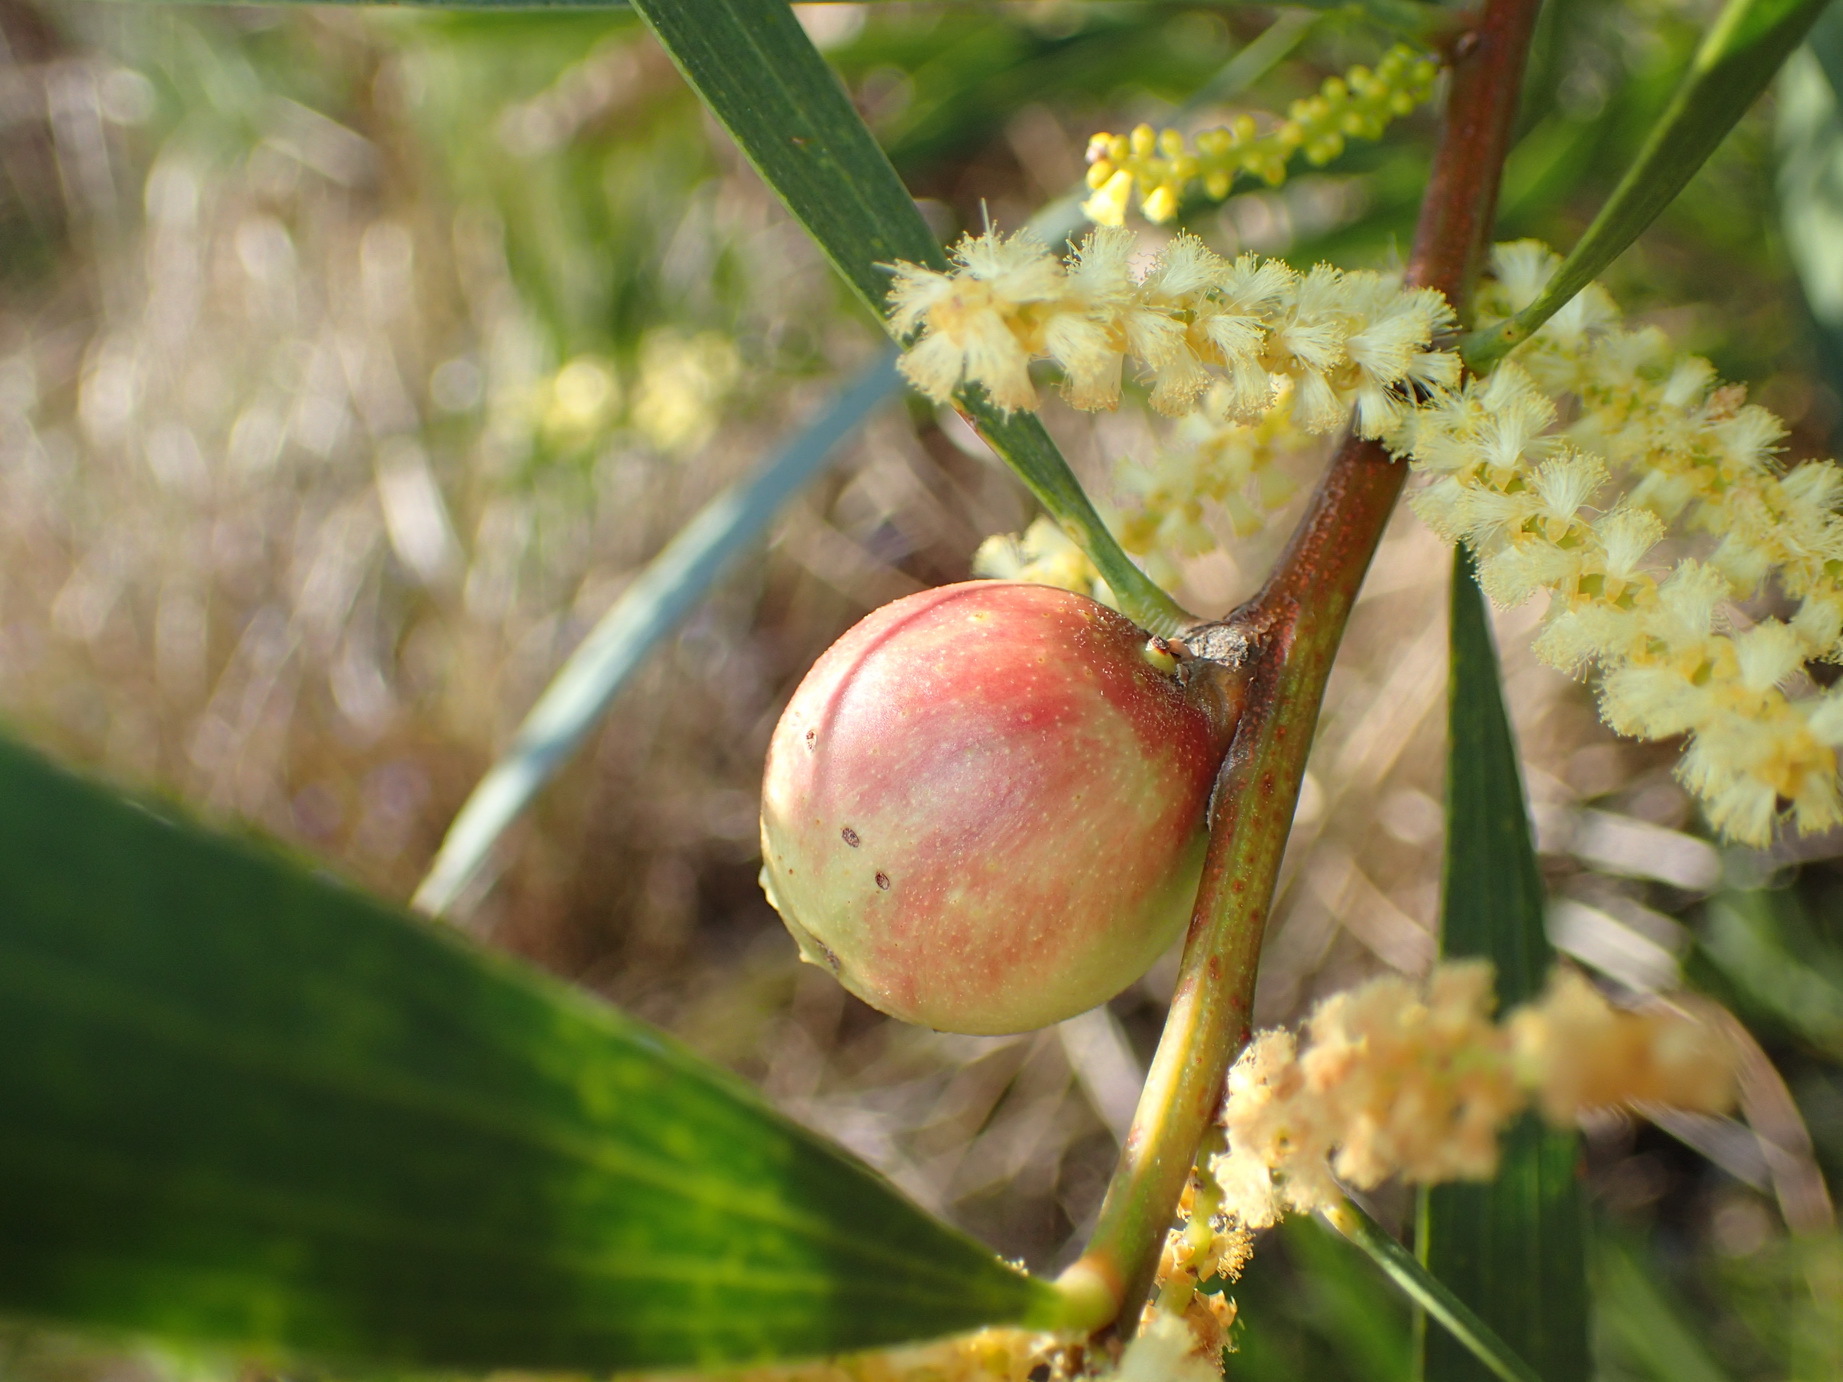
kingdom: Animalia
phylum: Arthropoda
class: Insecta
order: Hymenoptera
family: Pteromalidae
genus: Trichilogaster
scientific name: Trichilogaster acaciaelongifoliae
